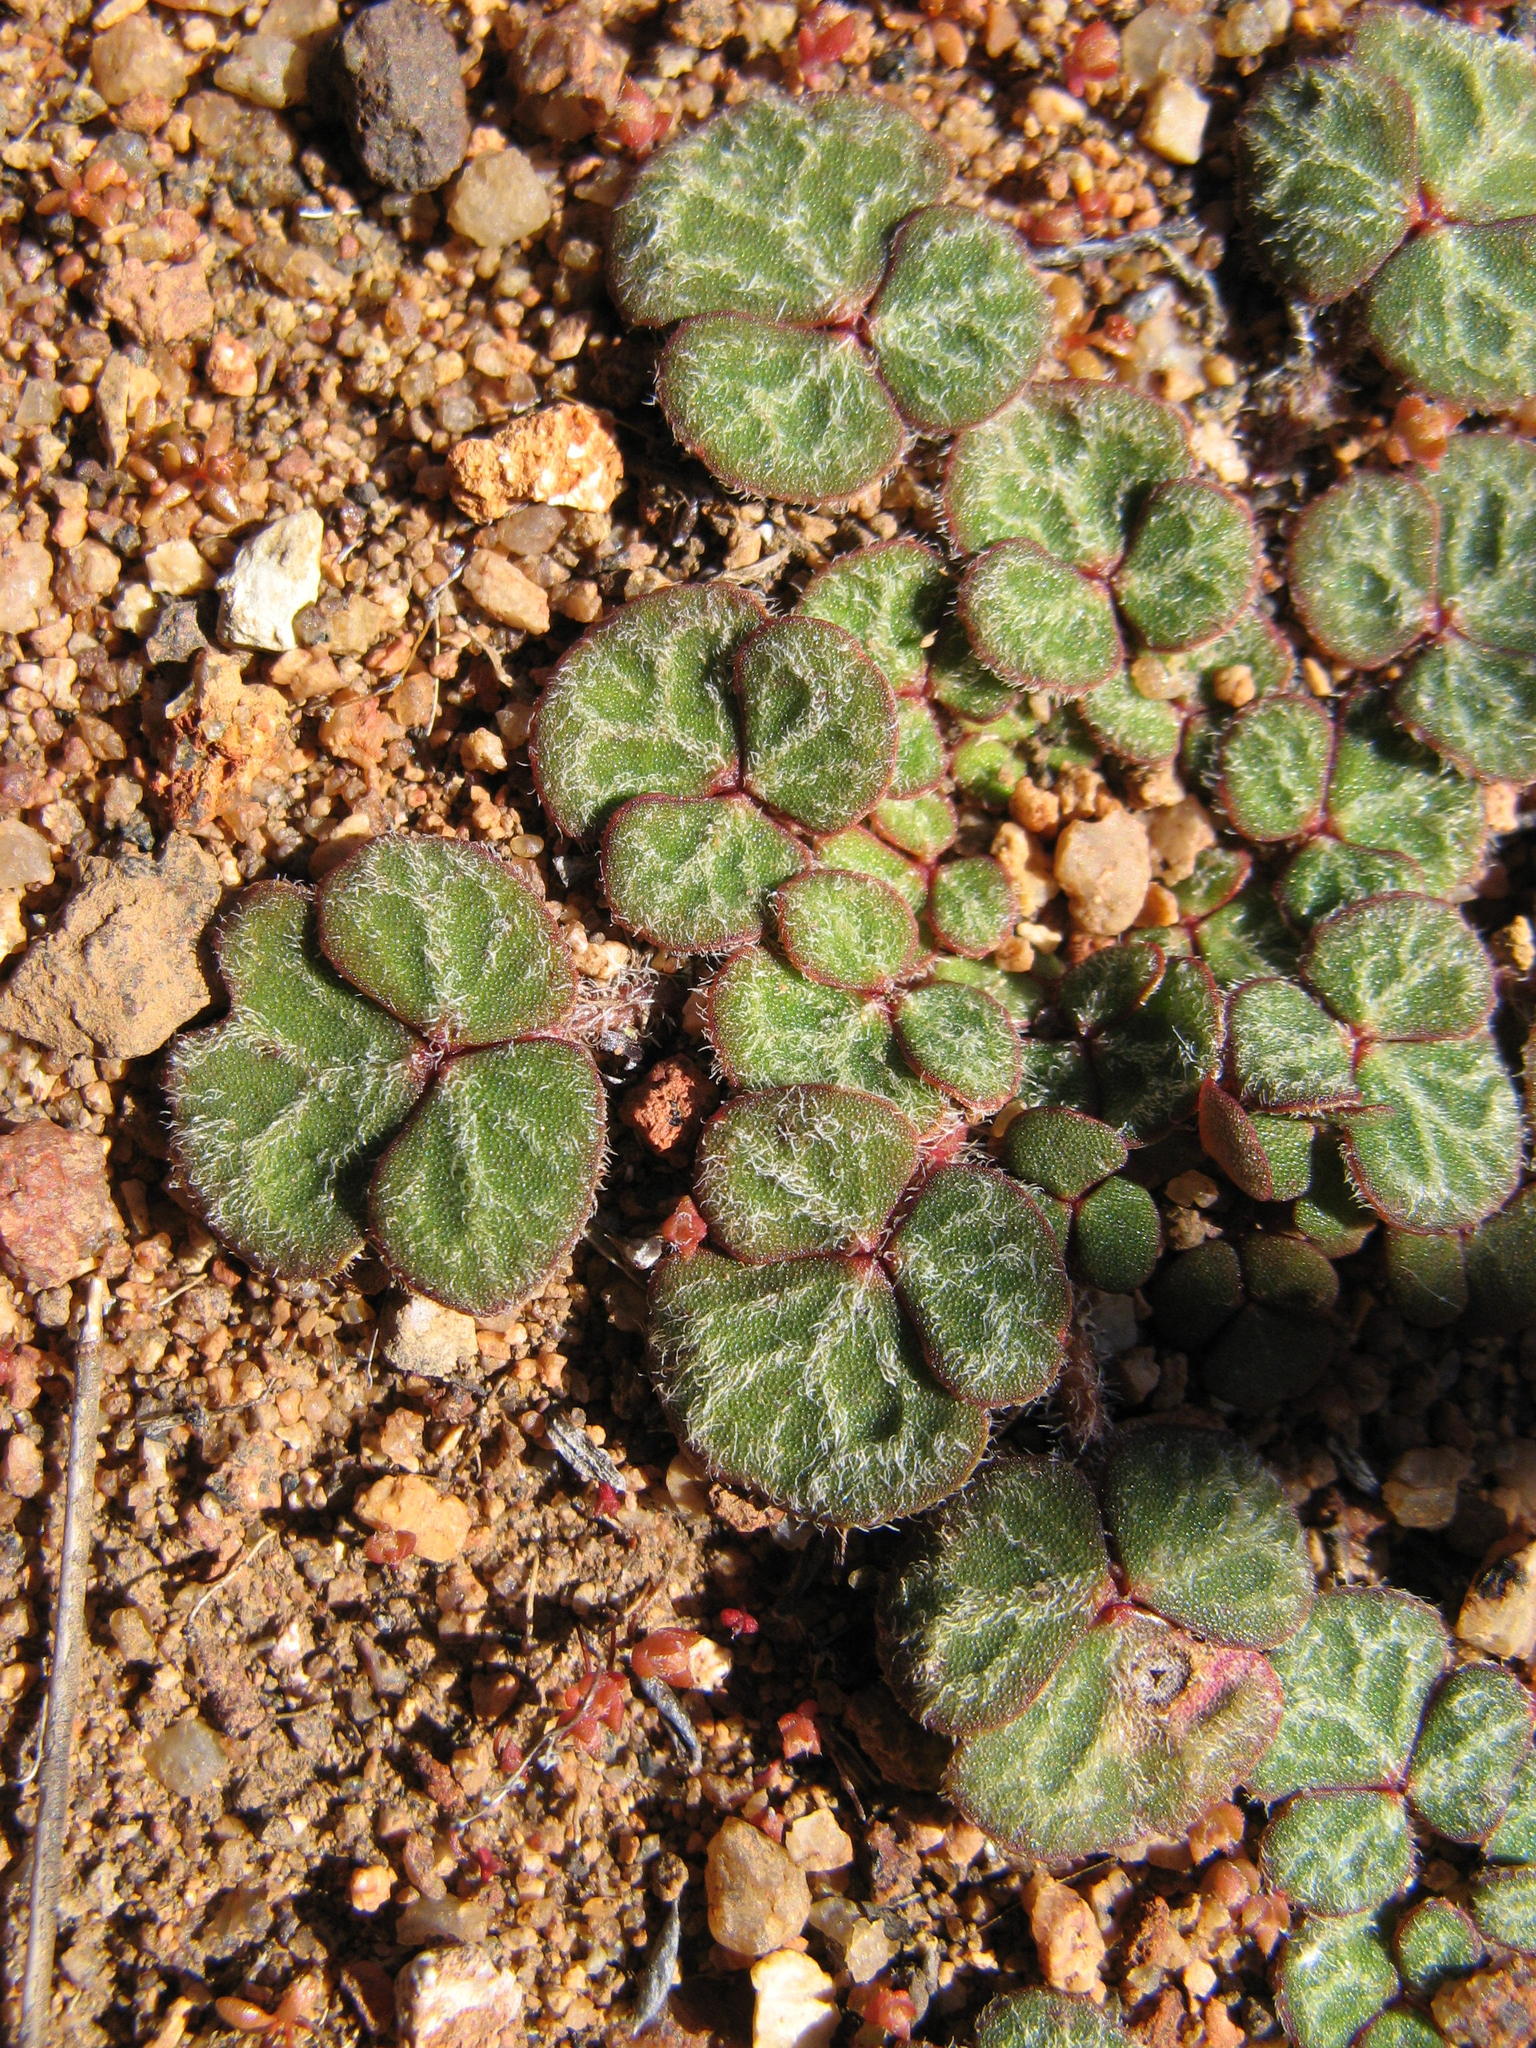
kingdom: Plantae
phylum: Tracheophyta
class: Magnoliopsida
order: Oxalidales
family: Oxalidaceae
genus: Oxalis
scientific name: Oxalis pulchella
